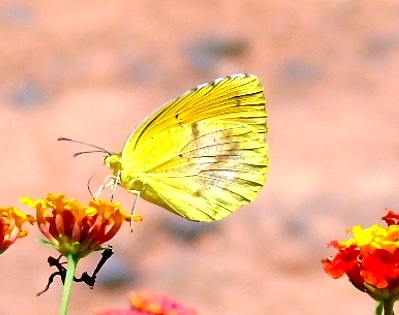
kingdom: Animalia
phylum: Arthropoda
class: Insecta
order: Lepidoptera
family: Pieridae
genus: Abaeis
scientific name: Abaeis nicippe
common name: Sleepy orange
